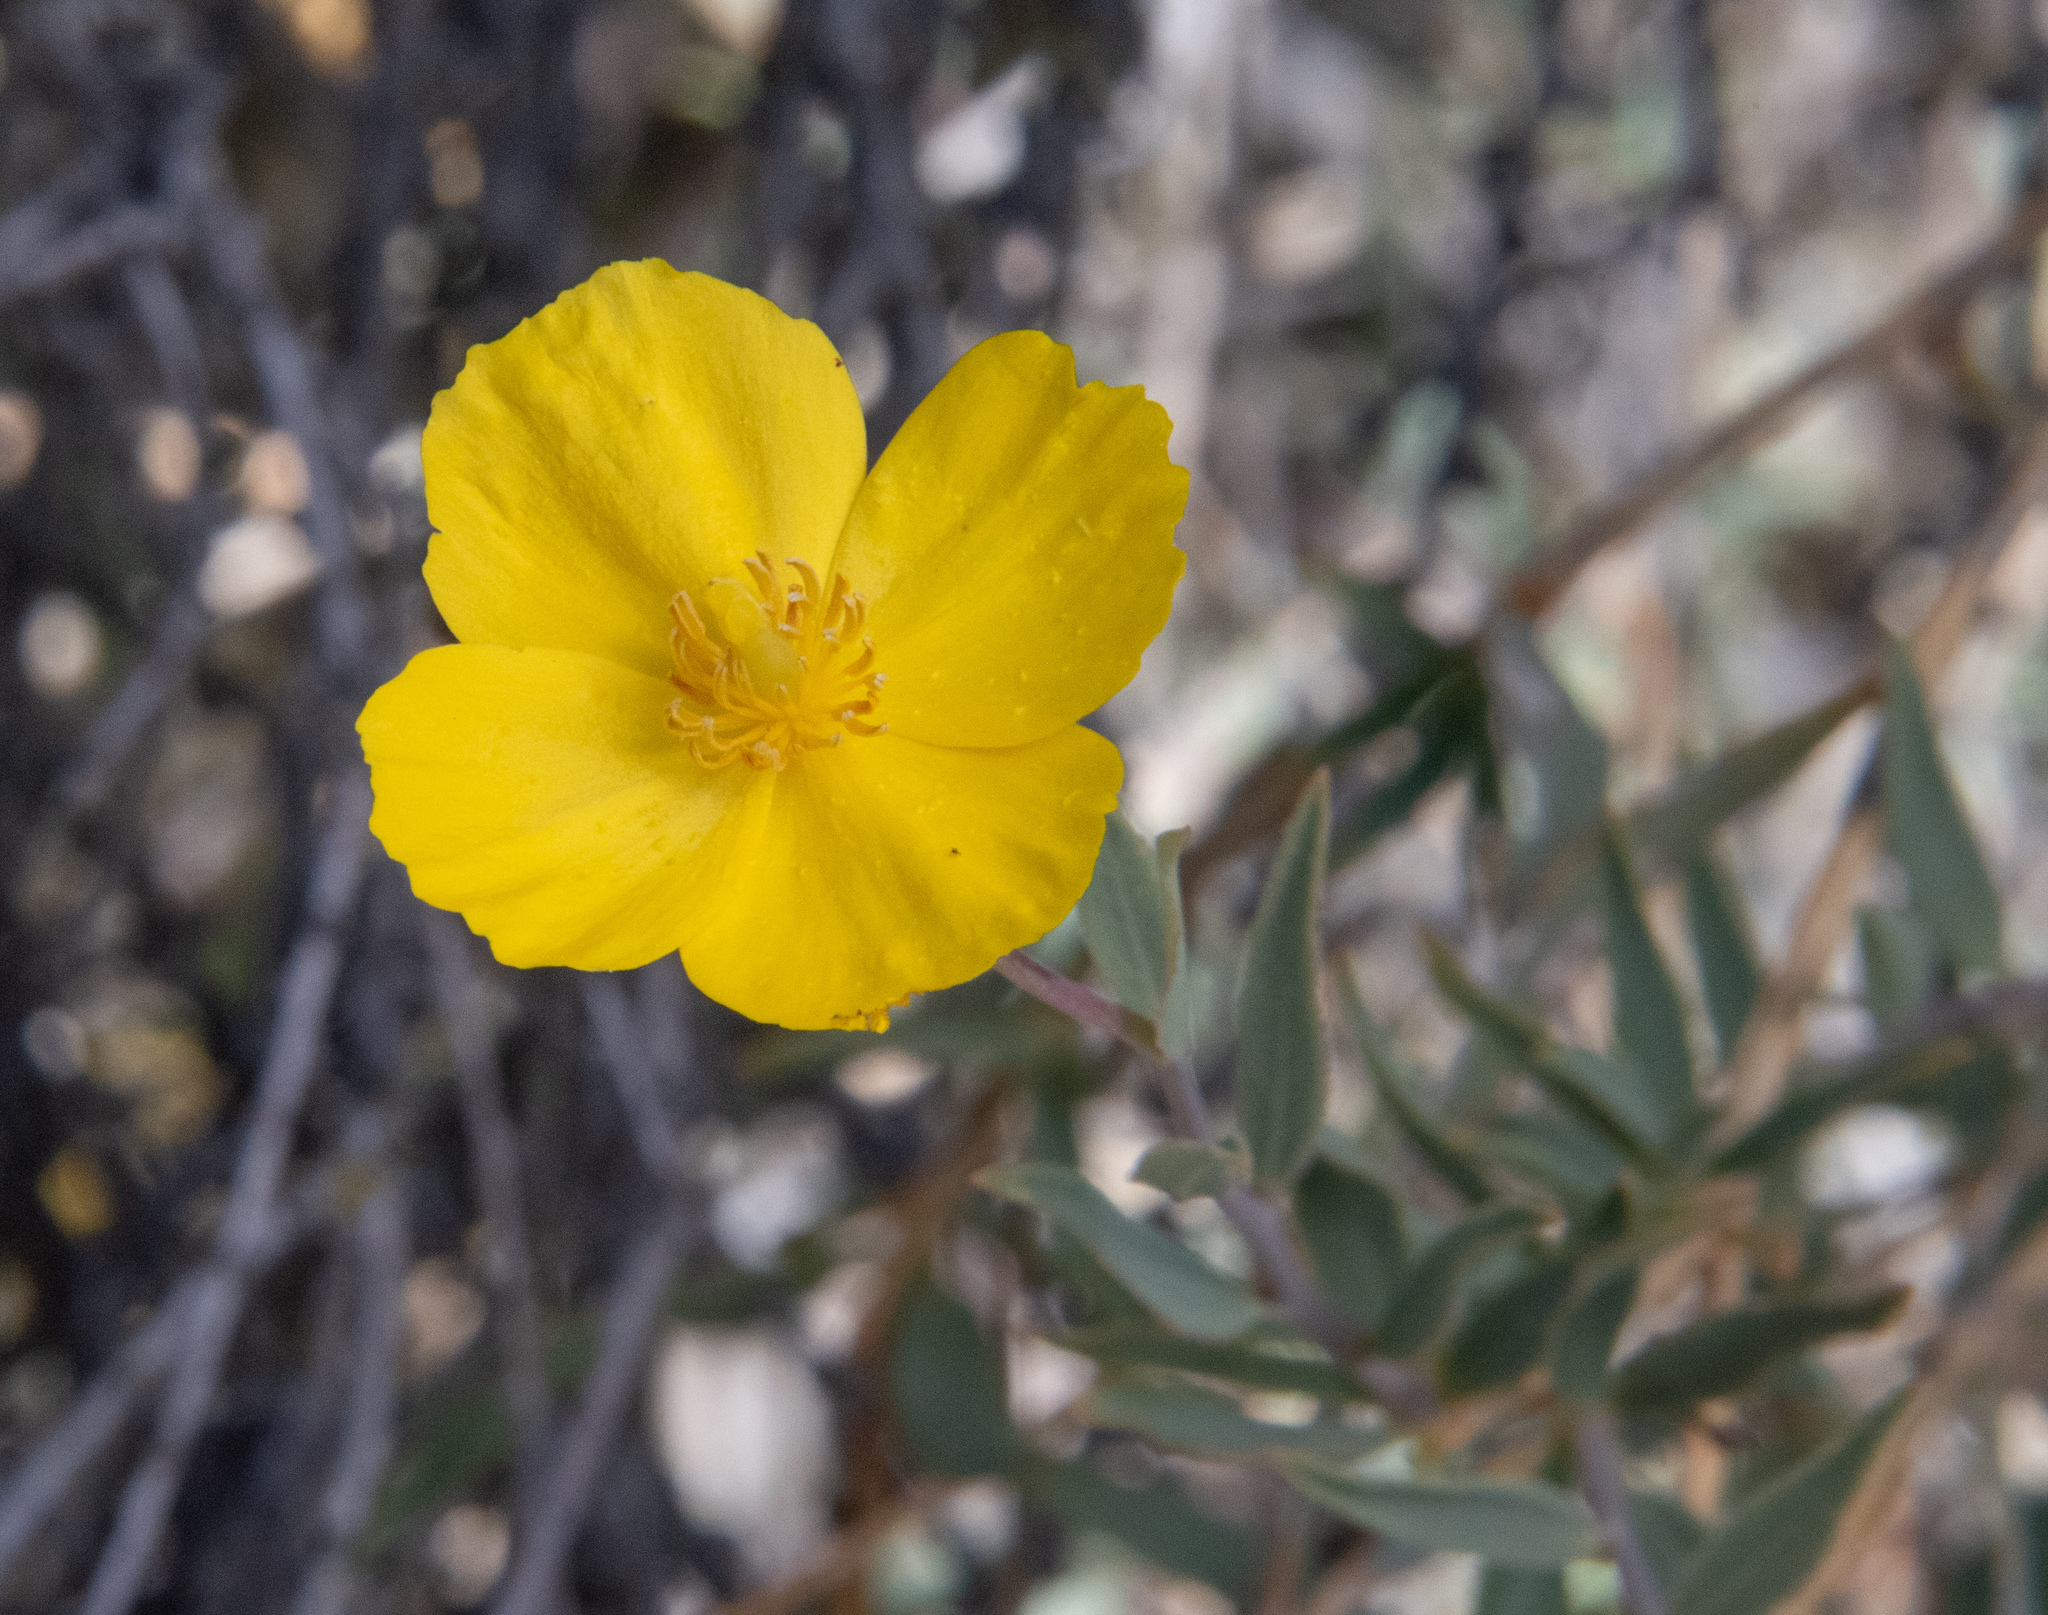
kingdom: Plantae
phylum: Tracheophyta
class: Magnoliopsida
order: Ranunculales
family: Papaveraceae
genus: Dendromecon
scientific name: Dendromecon rigida
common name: Tree poppy
